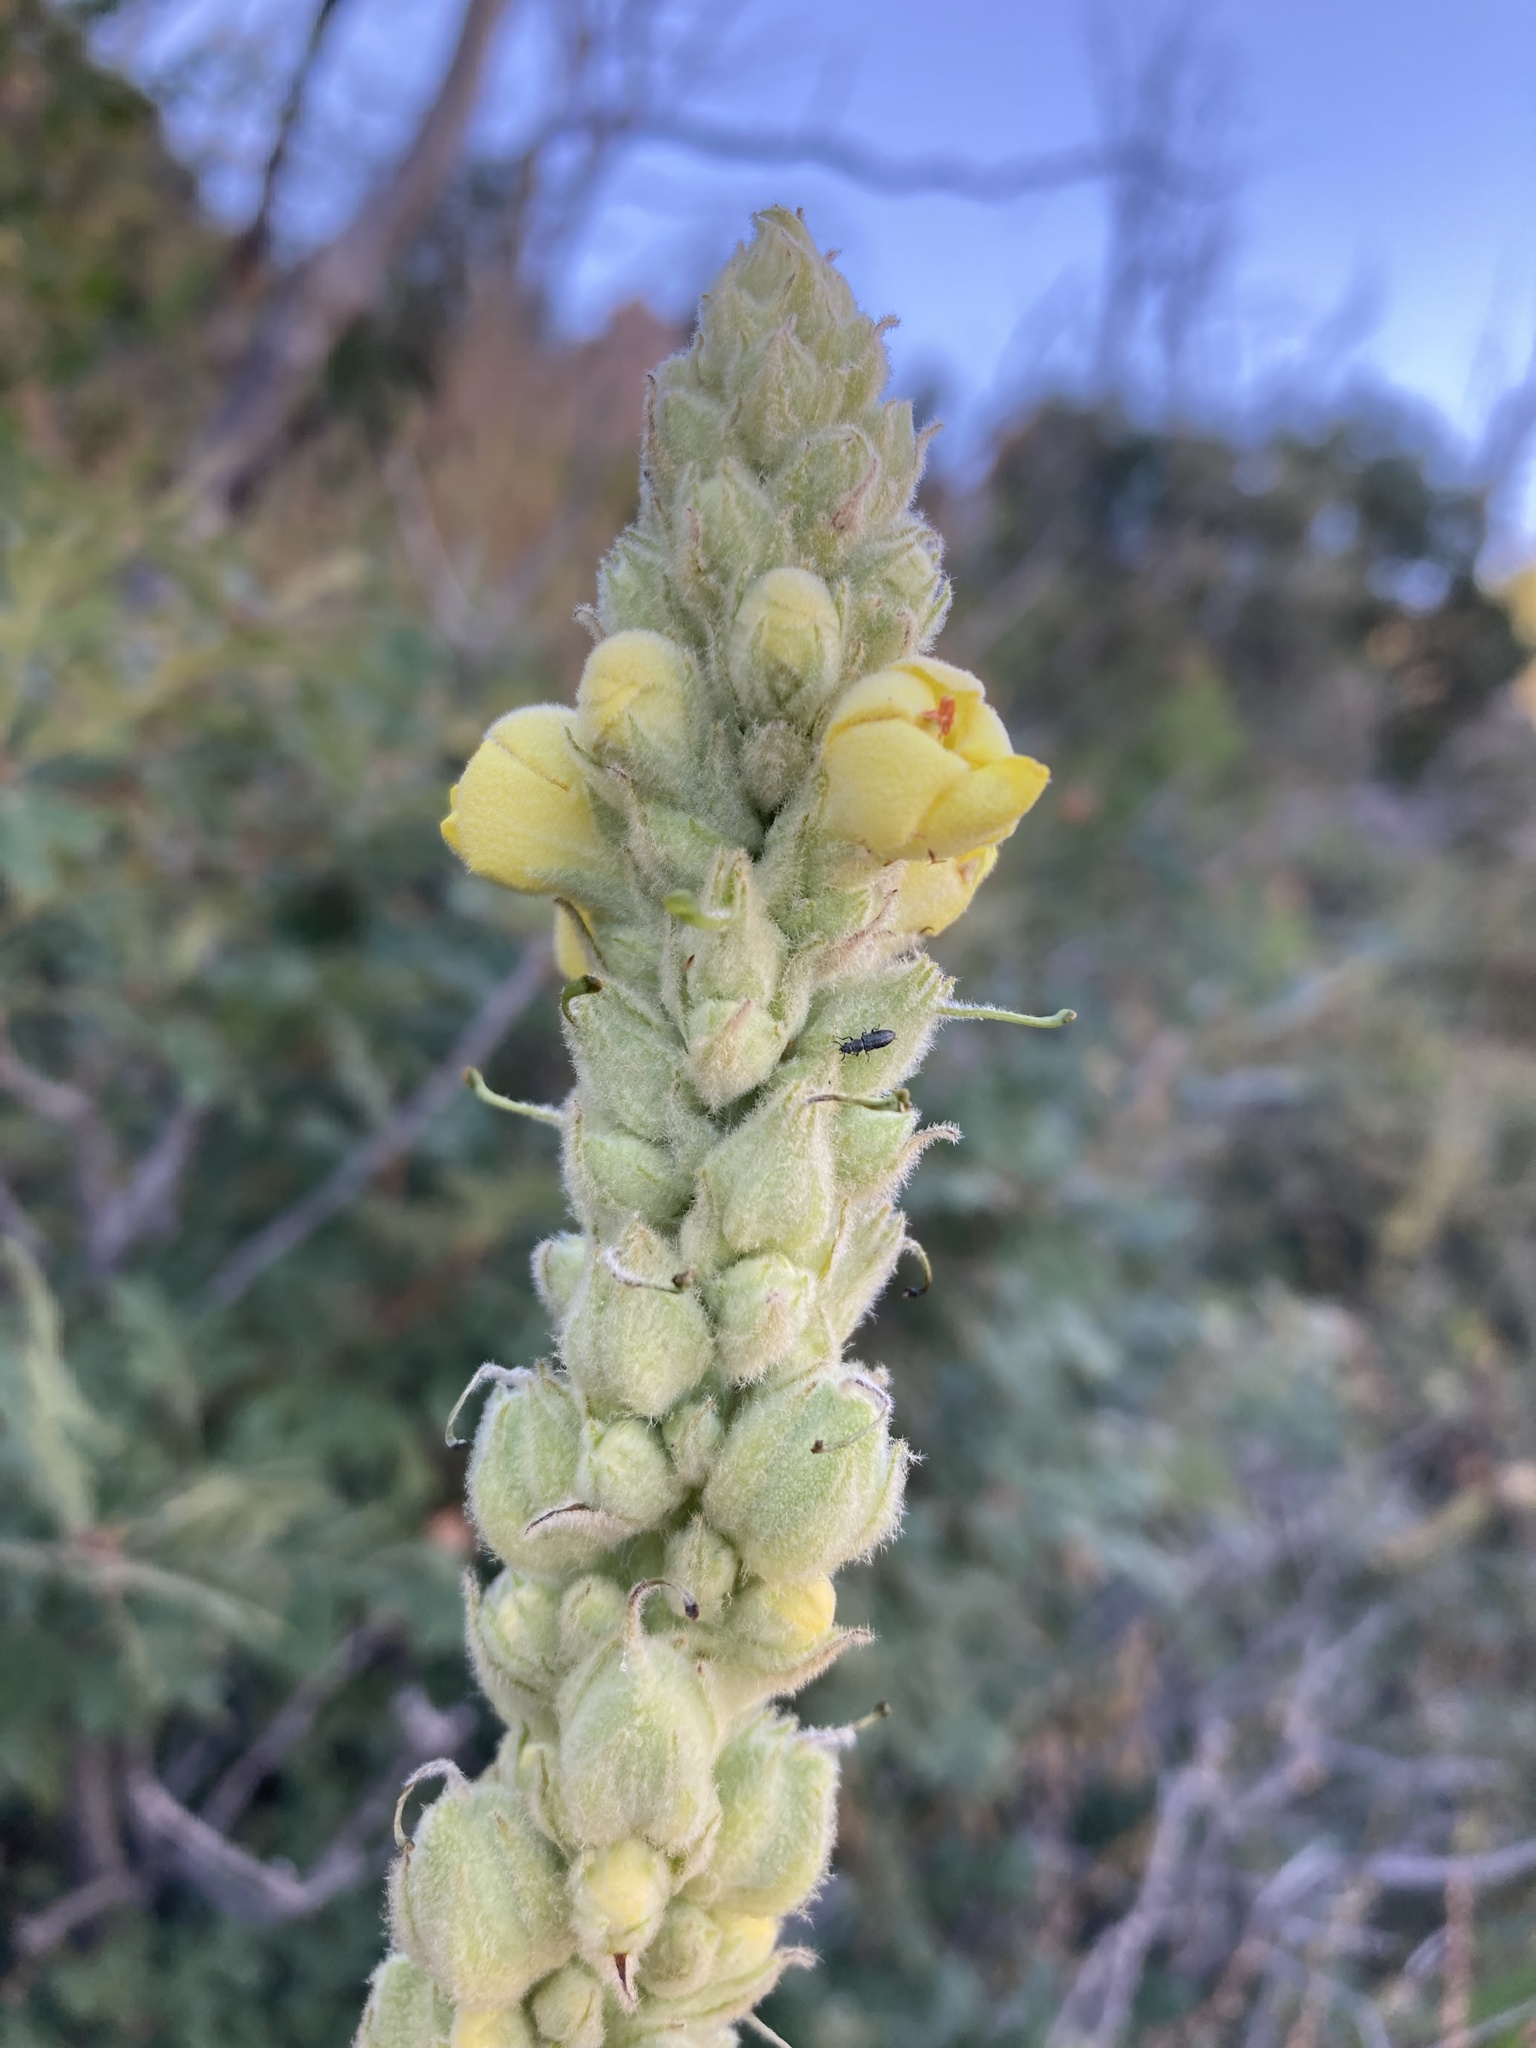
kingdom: Plantae
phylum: Tracheophyta
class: Magnoliopsida
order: Lamiales
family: Scrophulariaceae
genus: Verbascum
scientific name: Verbascum thapsus
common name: Common mullein
